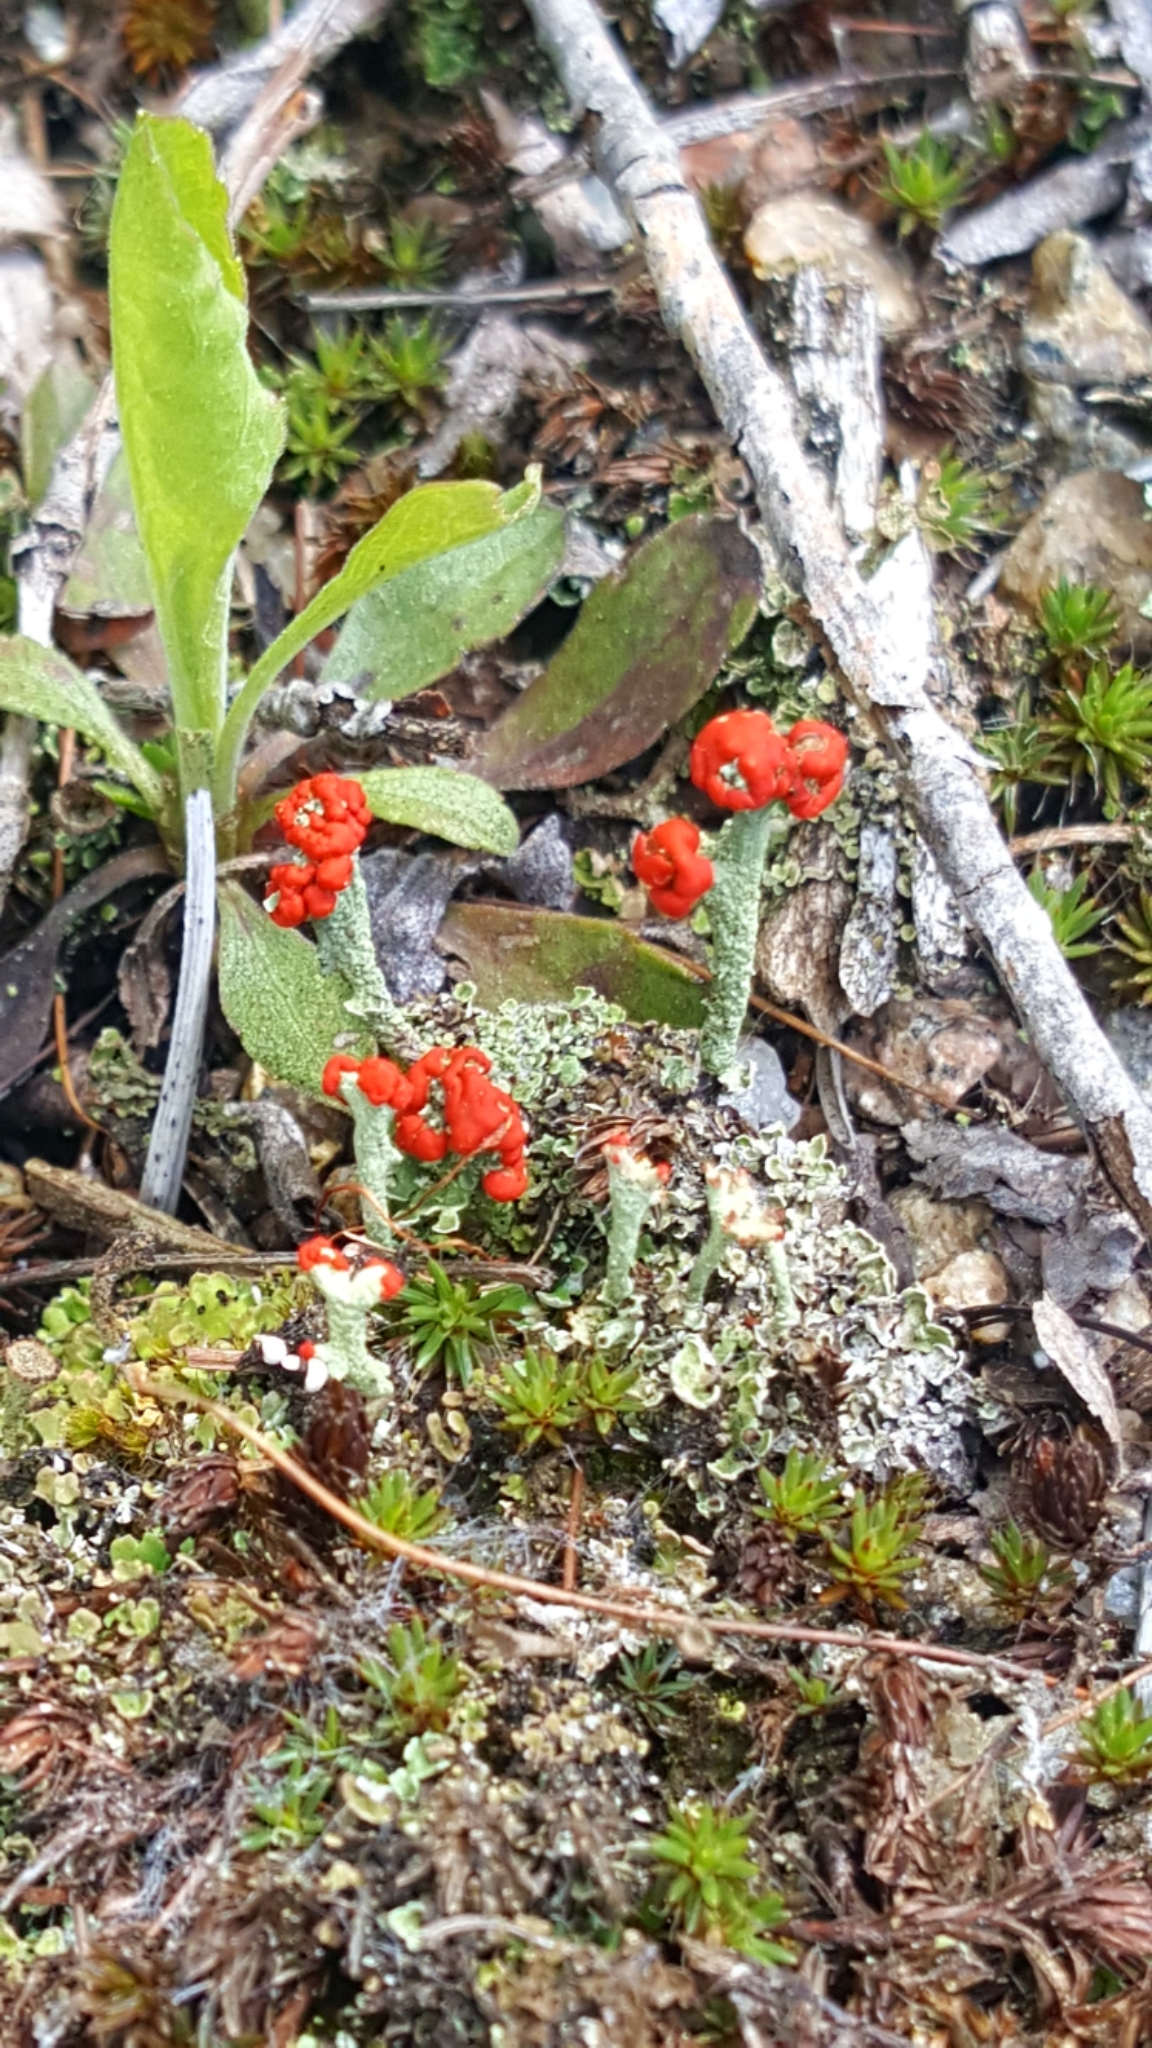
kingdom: Fungi
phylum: Ascomycota
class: Lecanoromycetes
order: Lecanorales
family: Cladoniaceae
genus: Cladonia
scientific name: Cladonia cristatella
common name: British soldier lichen
